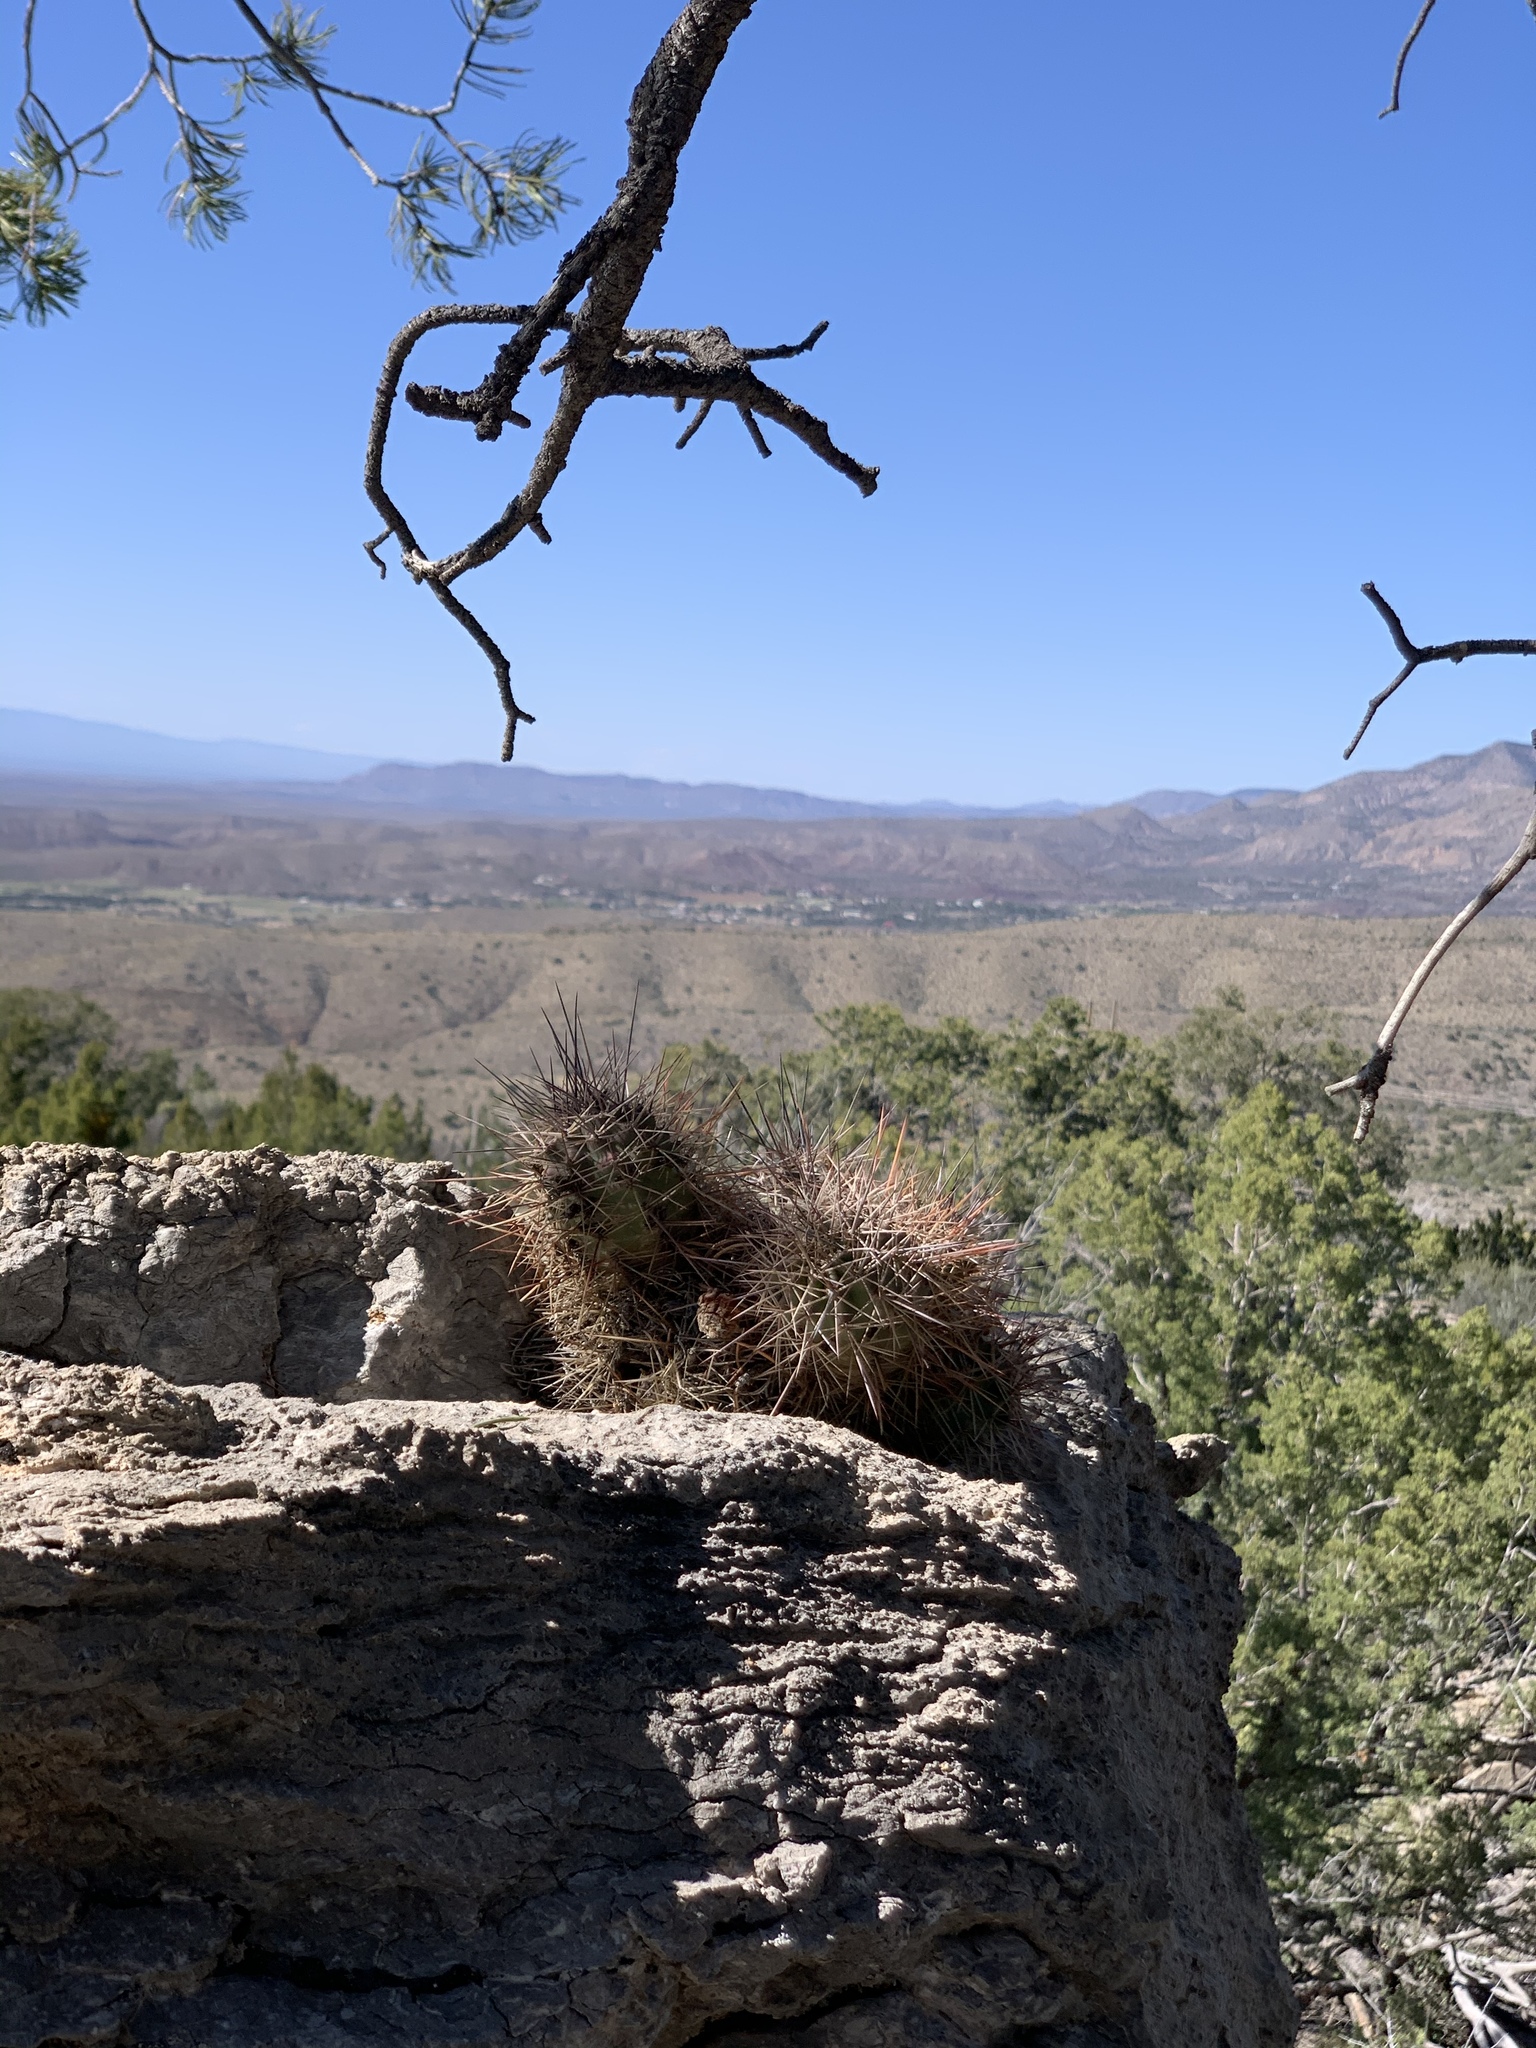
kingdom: Plantae
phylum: Tracheophyta
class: Magnoliopsida
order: Caryophyllales
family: Cactaceae
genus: Echinocereus
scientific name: Echinocereus coccineus
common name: Scarlet hedgehog cactus
